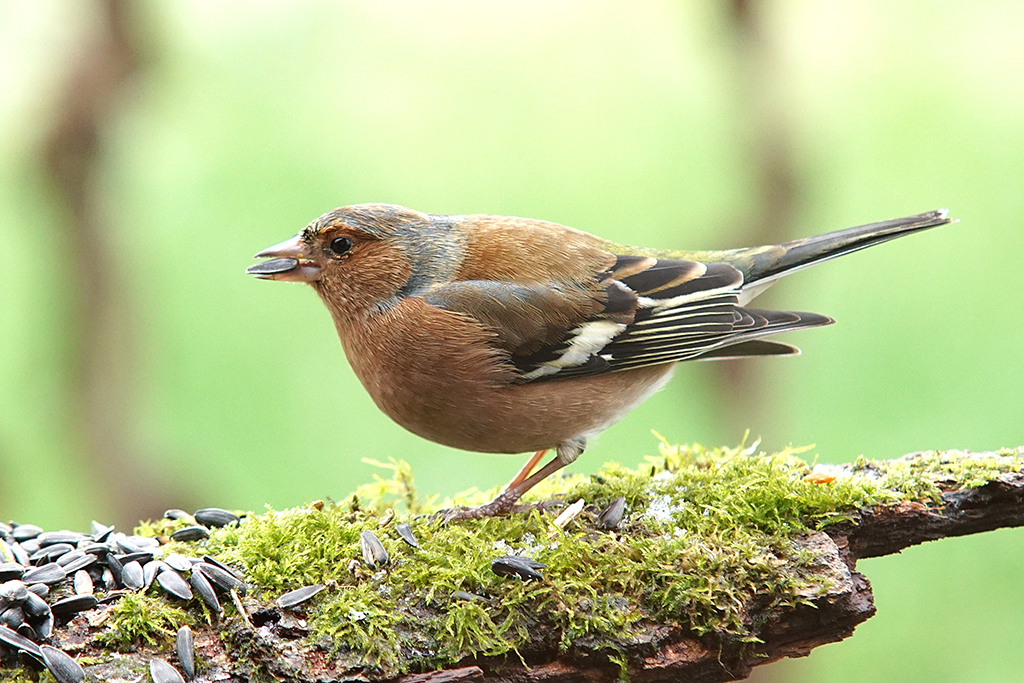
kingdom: Animalia
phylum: Chordata
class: Aves
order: Passeriformes
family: Fringillidae
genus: Fringilla
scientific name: Fringilla coelebs
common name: Common chaffinch
